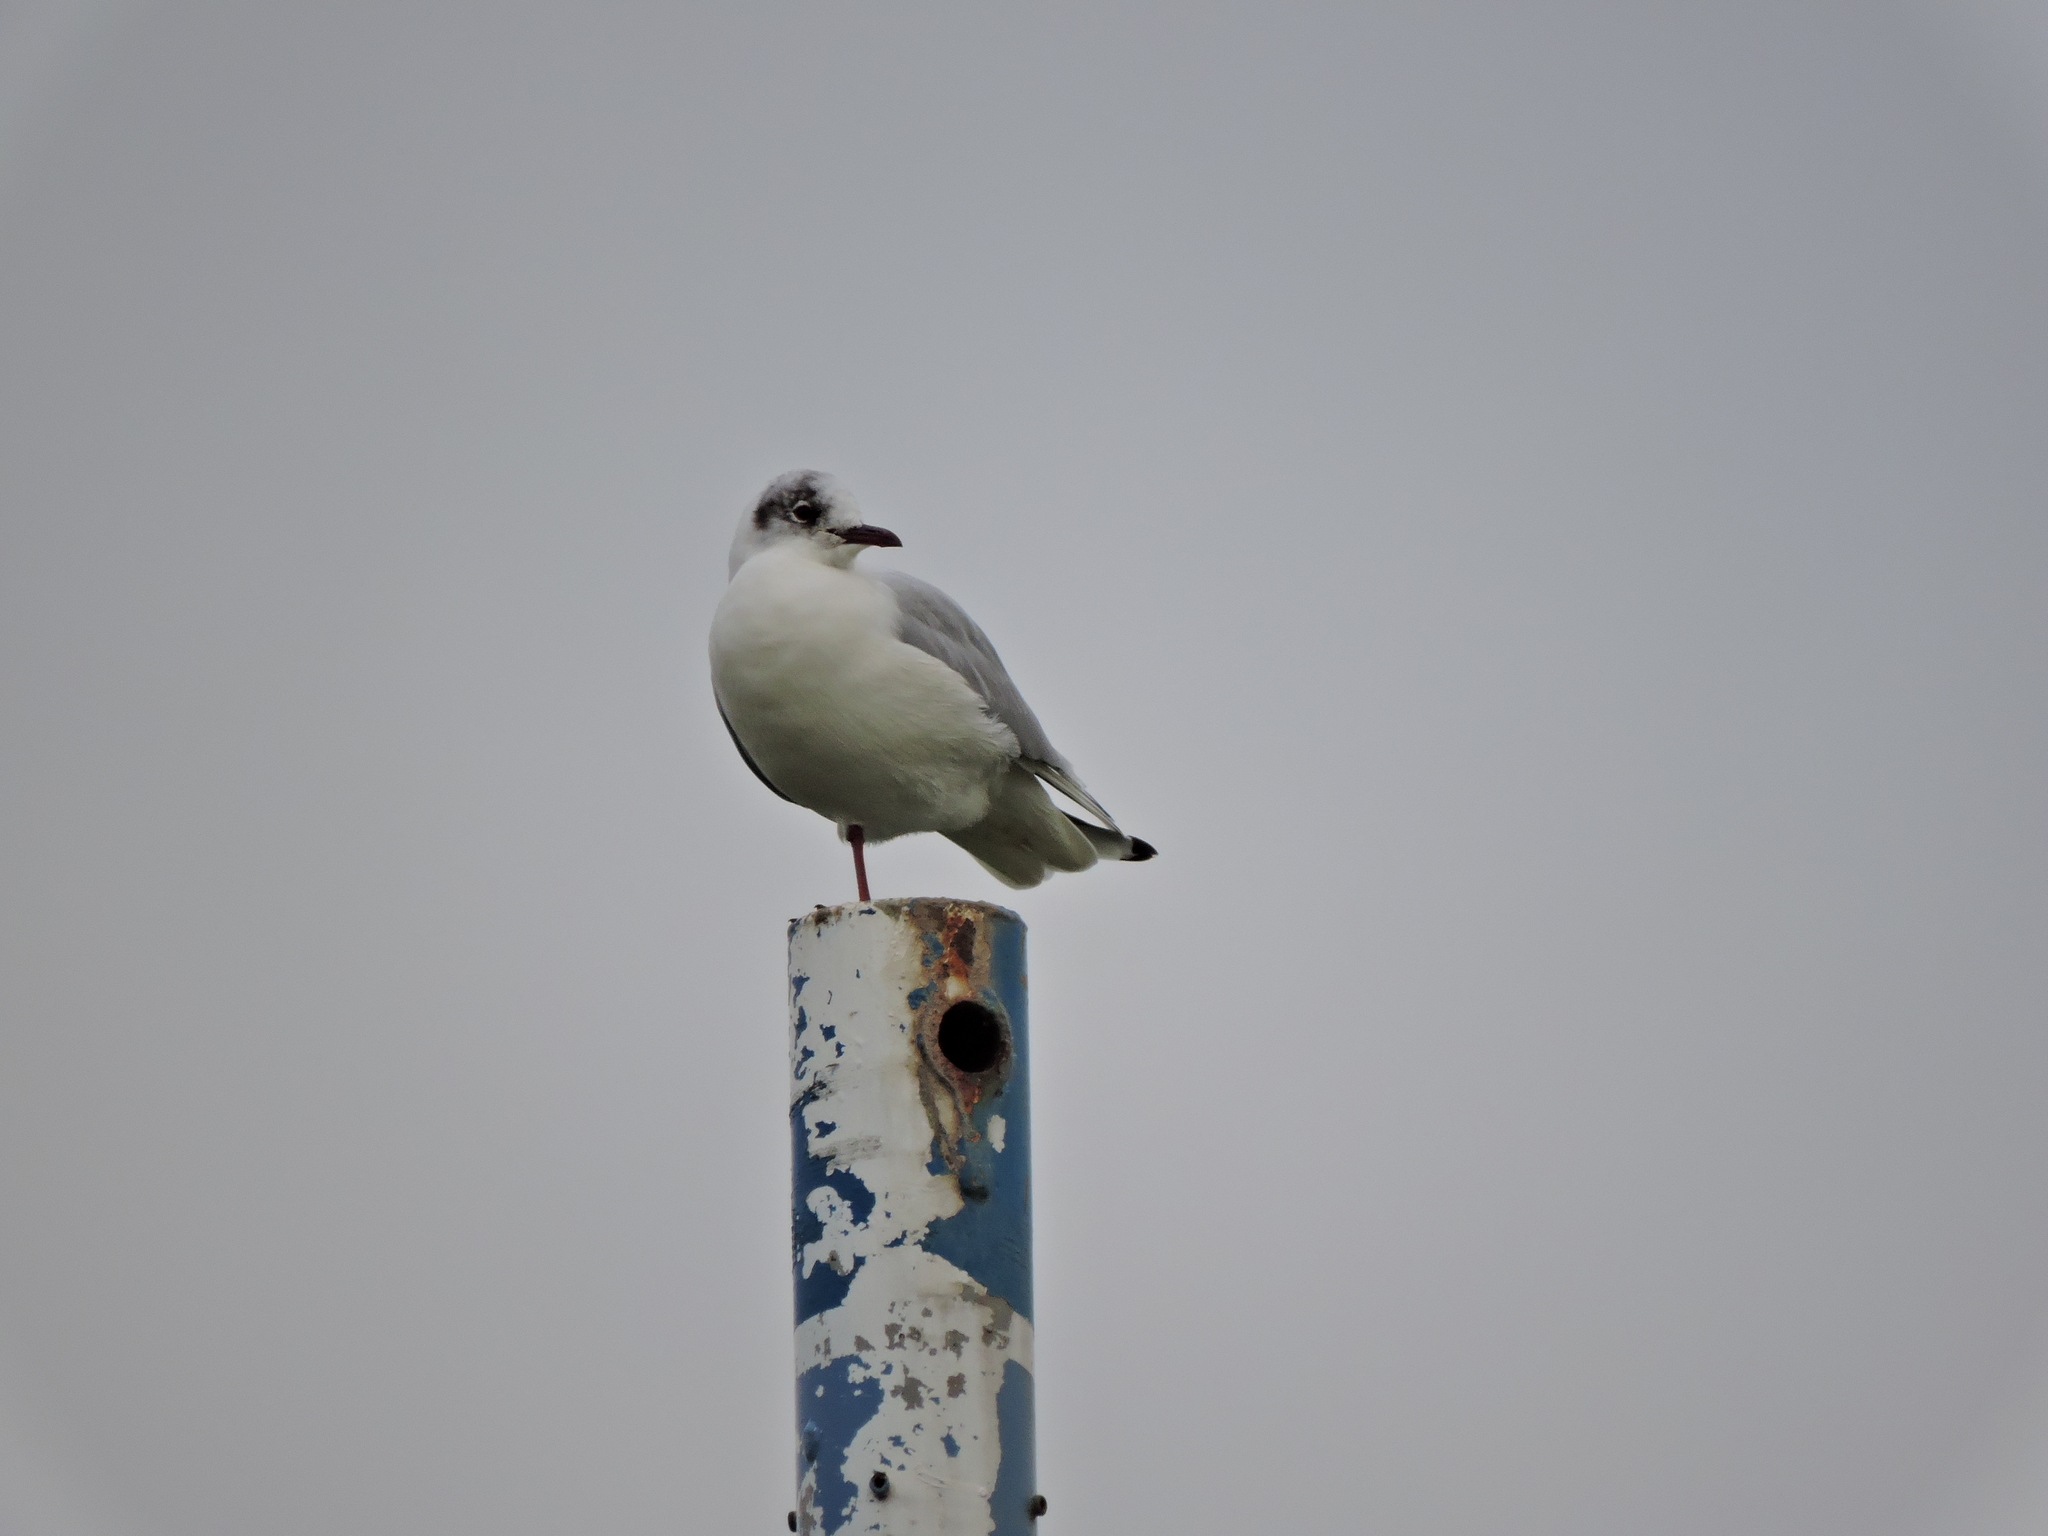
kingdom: Animalia
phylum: Chordata
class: Aves
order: Charadriiformes
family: Laridae
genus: Chroicocephalus
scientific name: Chroicocephalus ridibundus
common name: Black-headed gull
